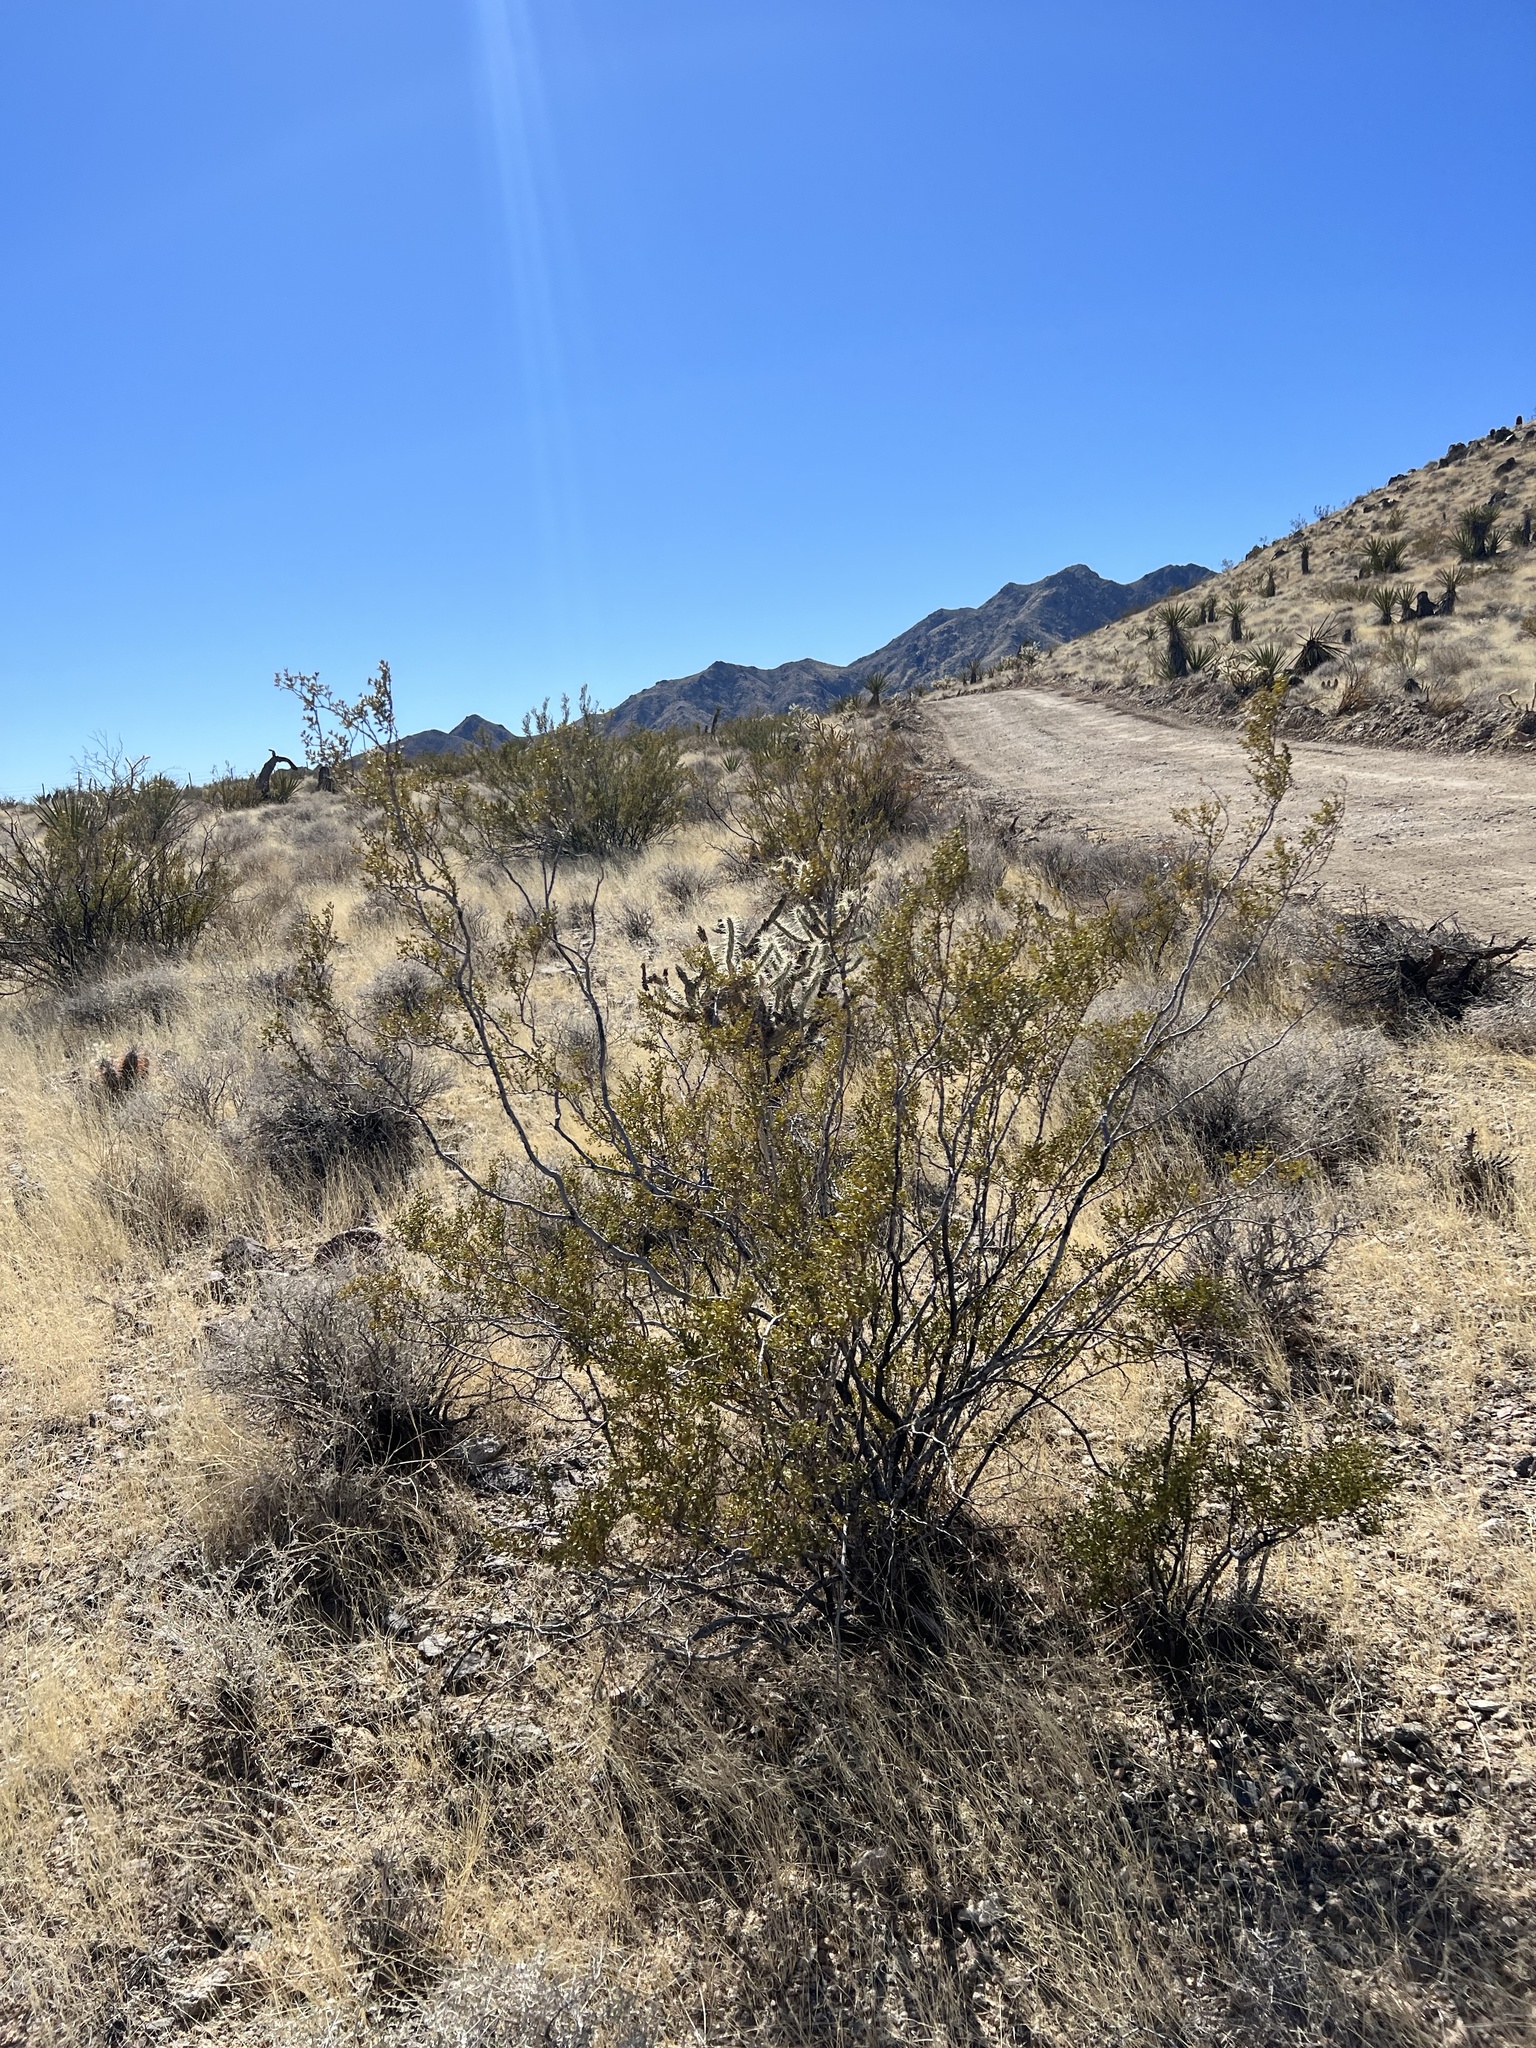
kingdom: Plantae
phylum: Tracheophyta
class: Magnoliopsida
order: Zygophyllales
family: Zygophyllaceae
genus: Larrea
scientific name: Larrea tridentata
